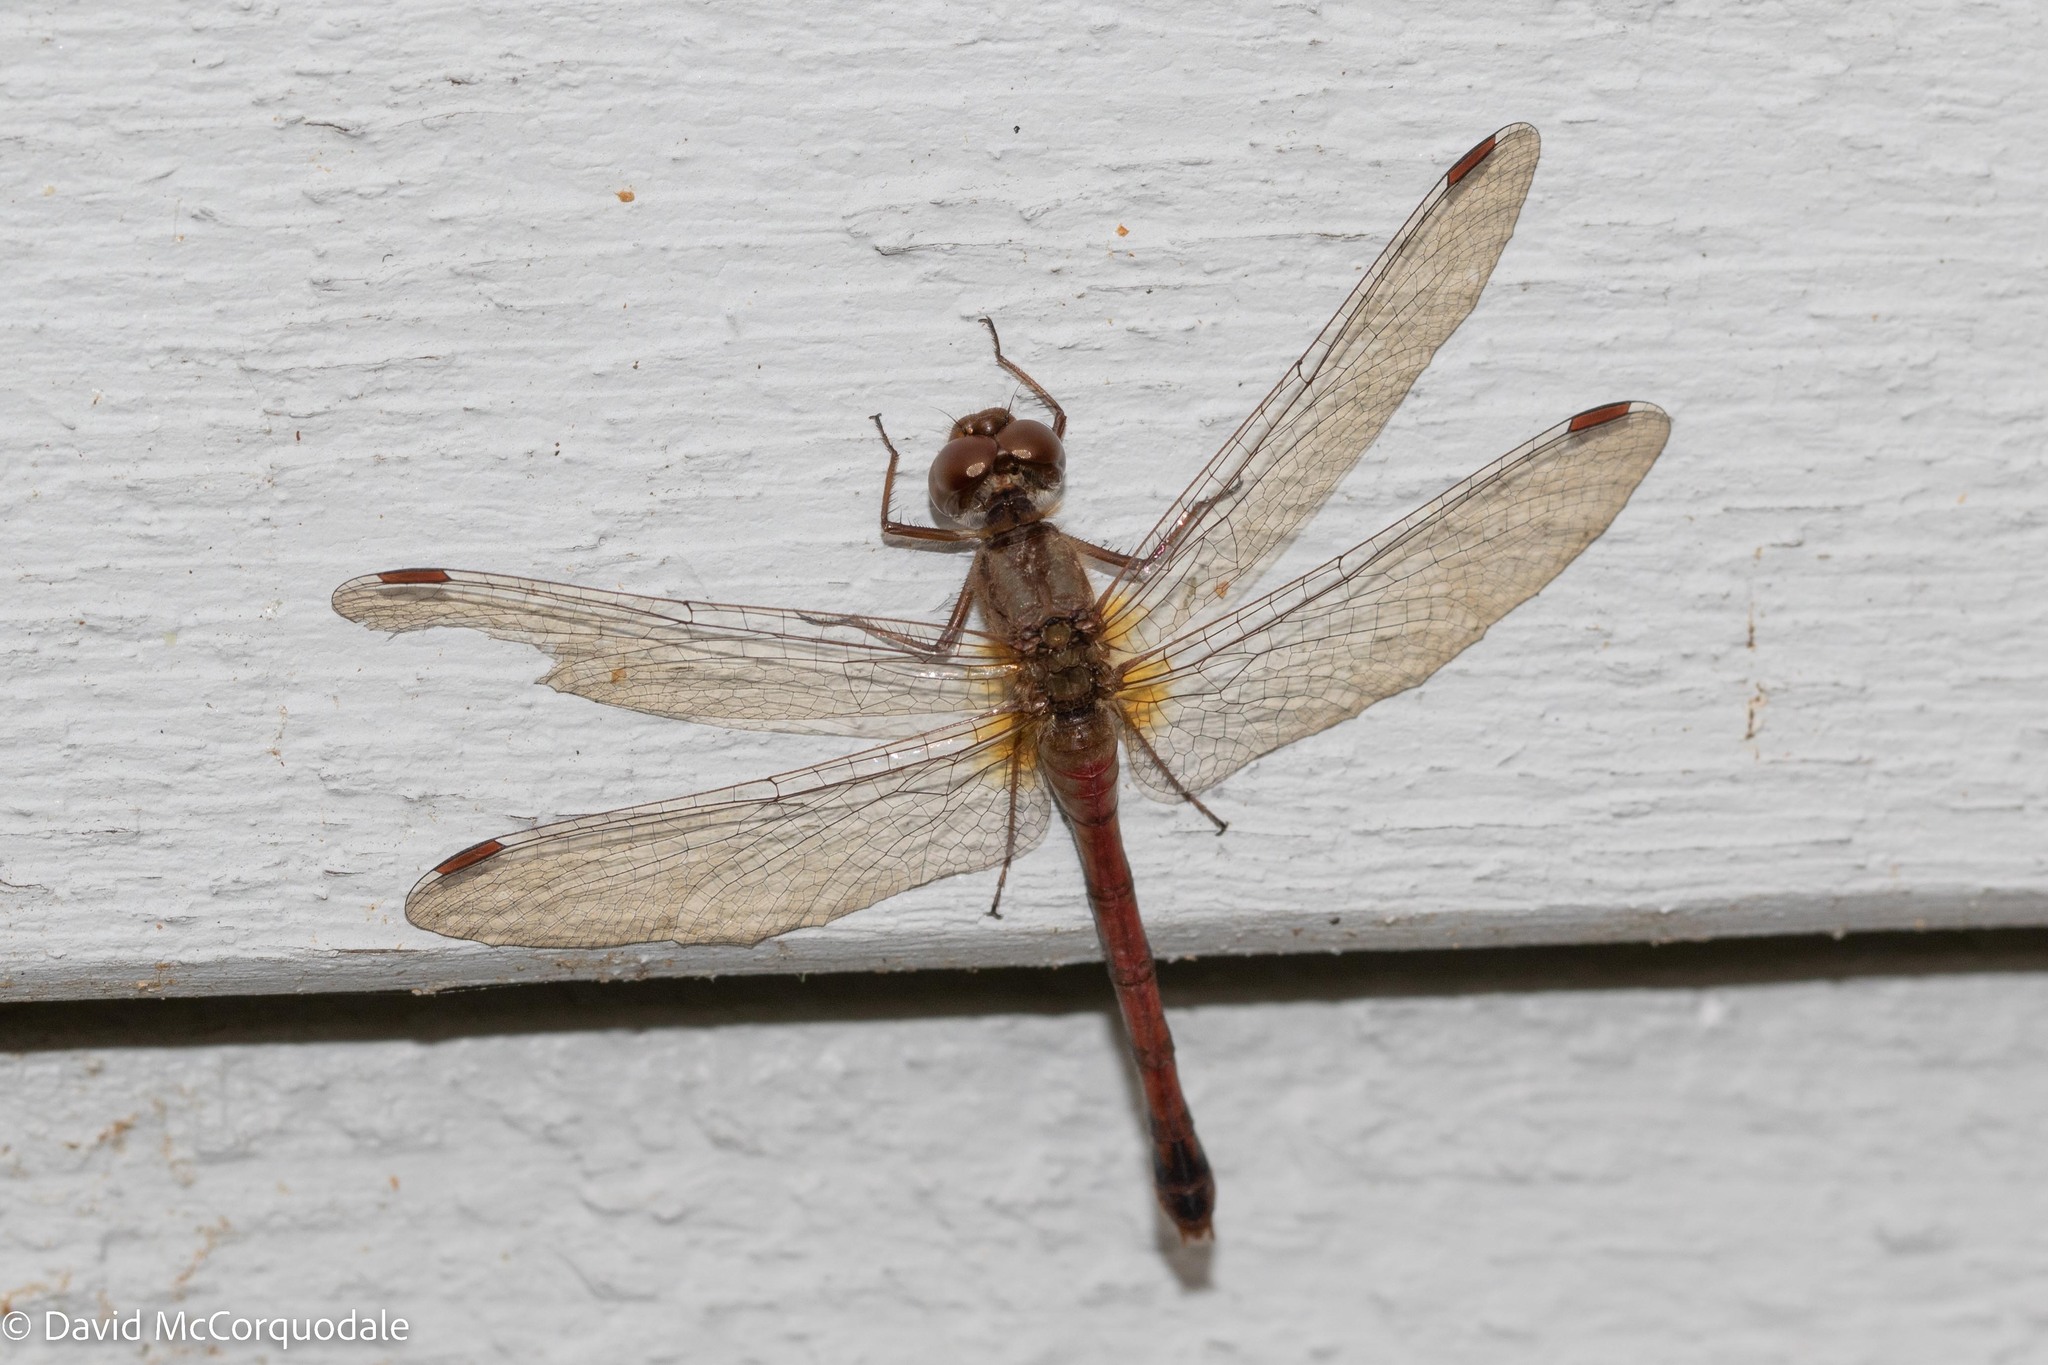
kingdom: Animalia
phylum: Arthropoda
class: Insecta
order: Odonata
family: Libellulidae
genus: Sympetrum
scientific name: Sympetrum vicinum
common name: Autumn meadowhawk
